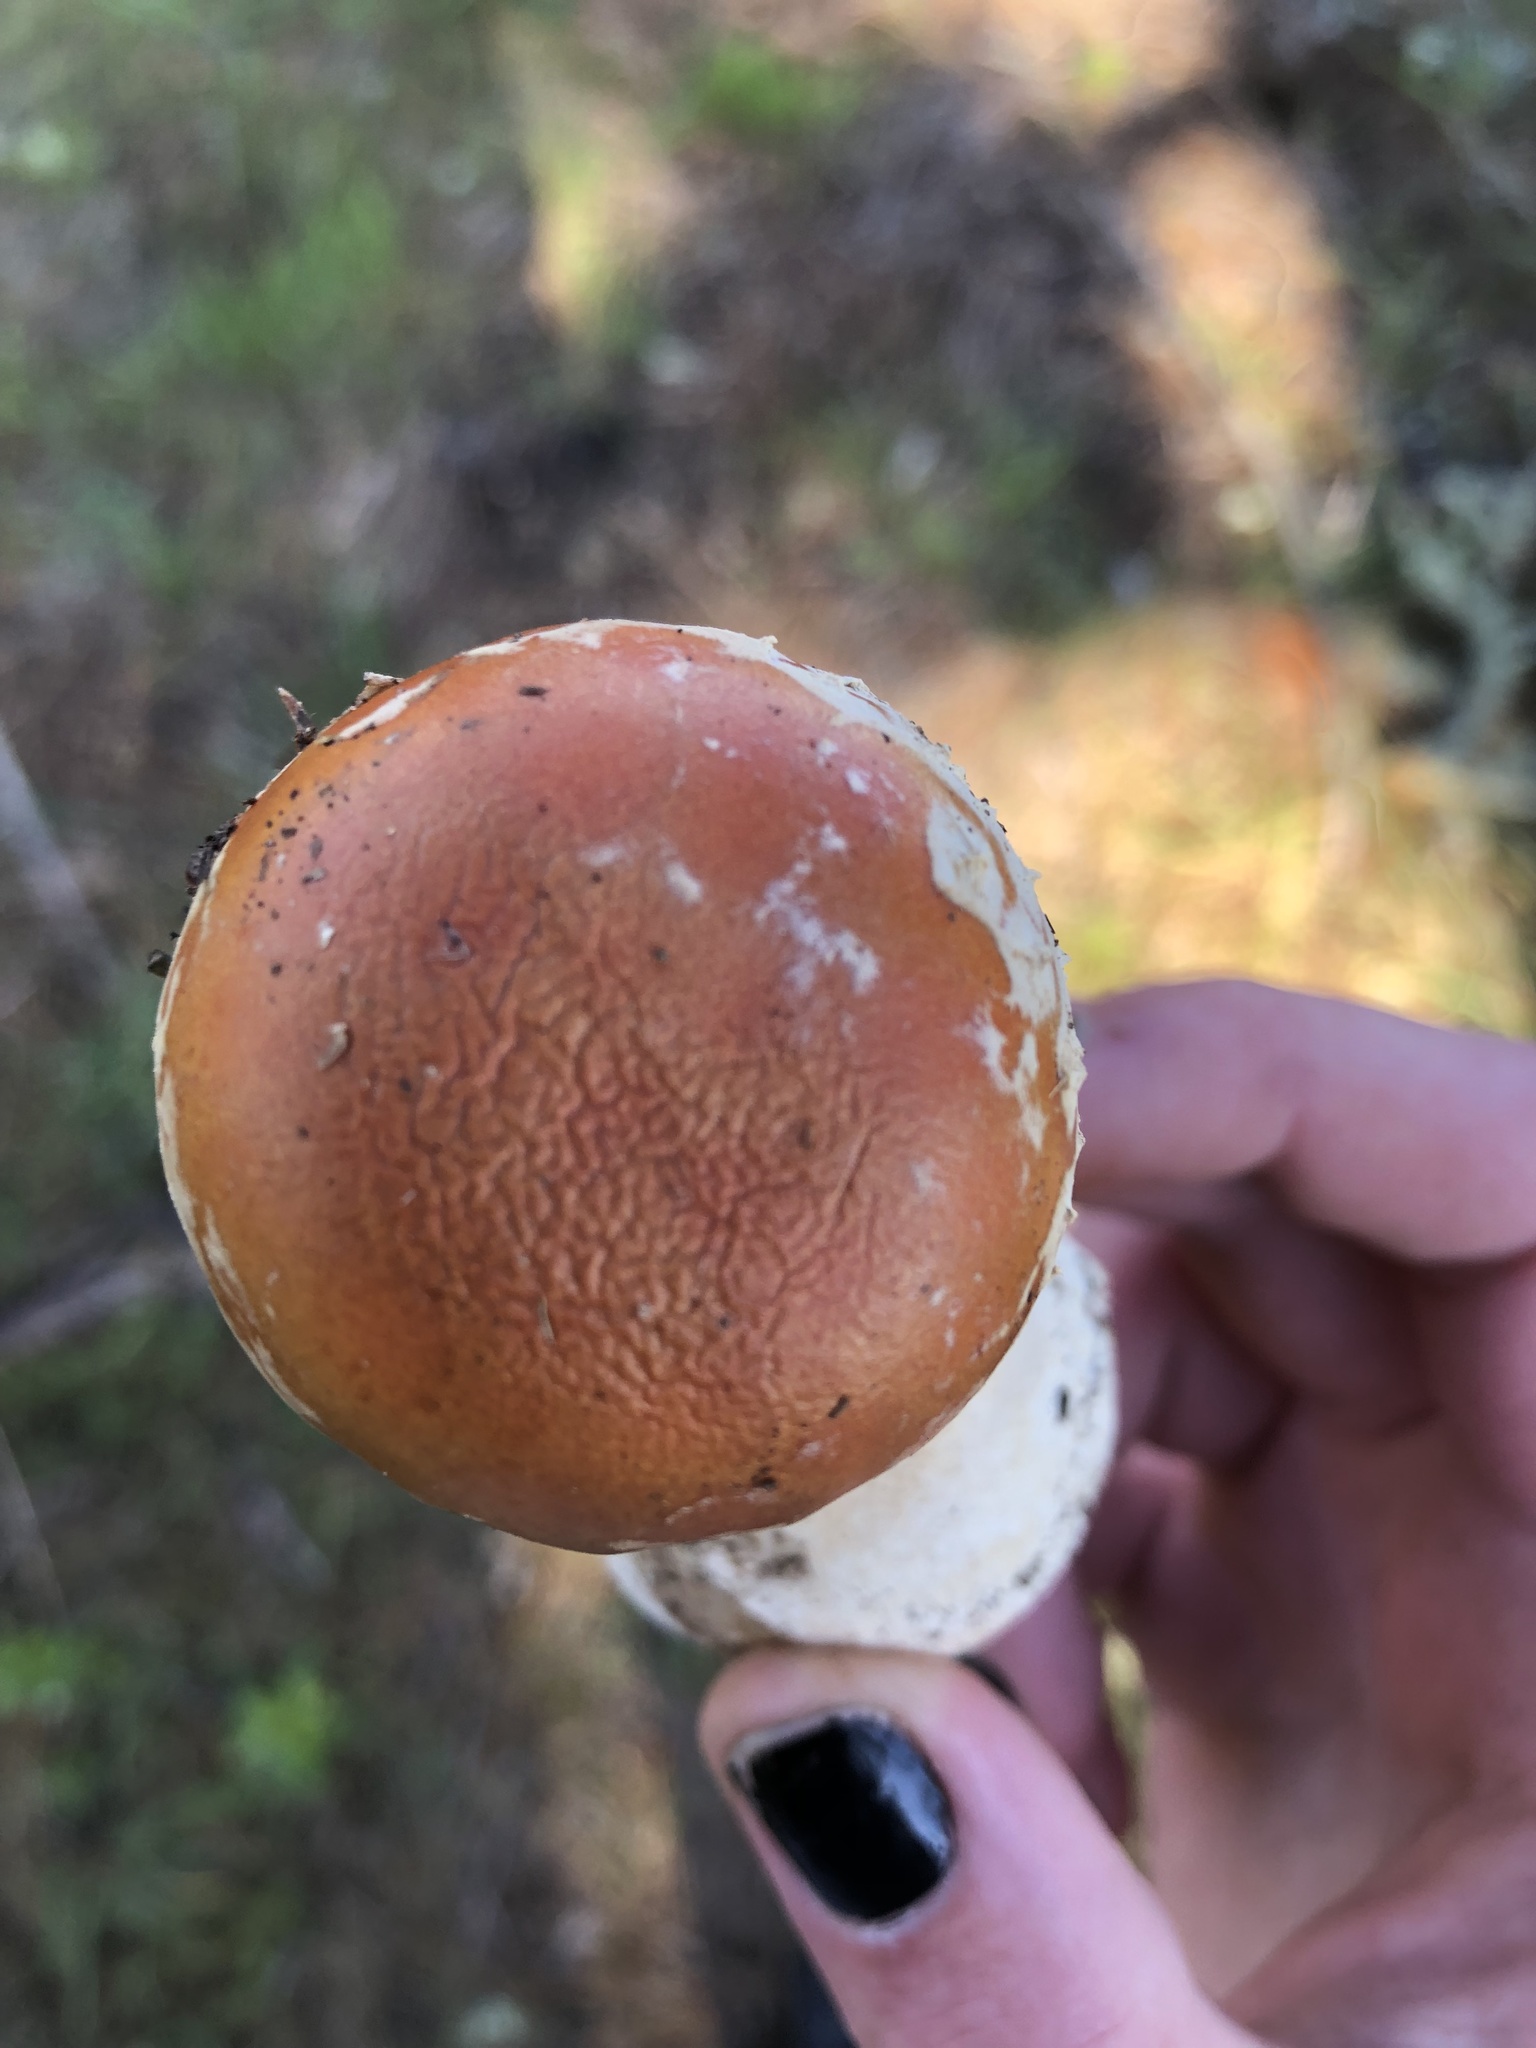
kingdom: Fungi
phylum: Basidiomycota
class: Agaricomycetes
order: Agaricales
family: Amanitaceae
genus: Amanita
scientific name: Amanita muscaria
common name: Fly agaric
